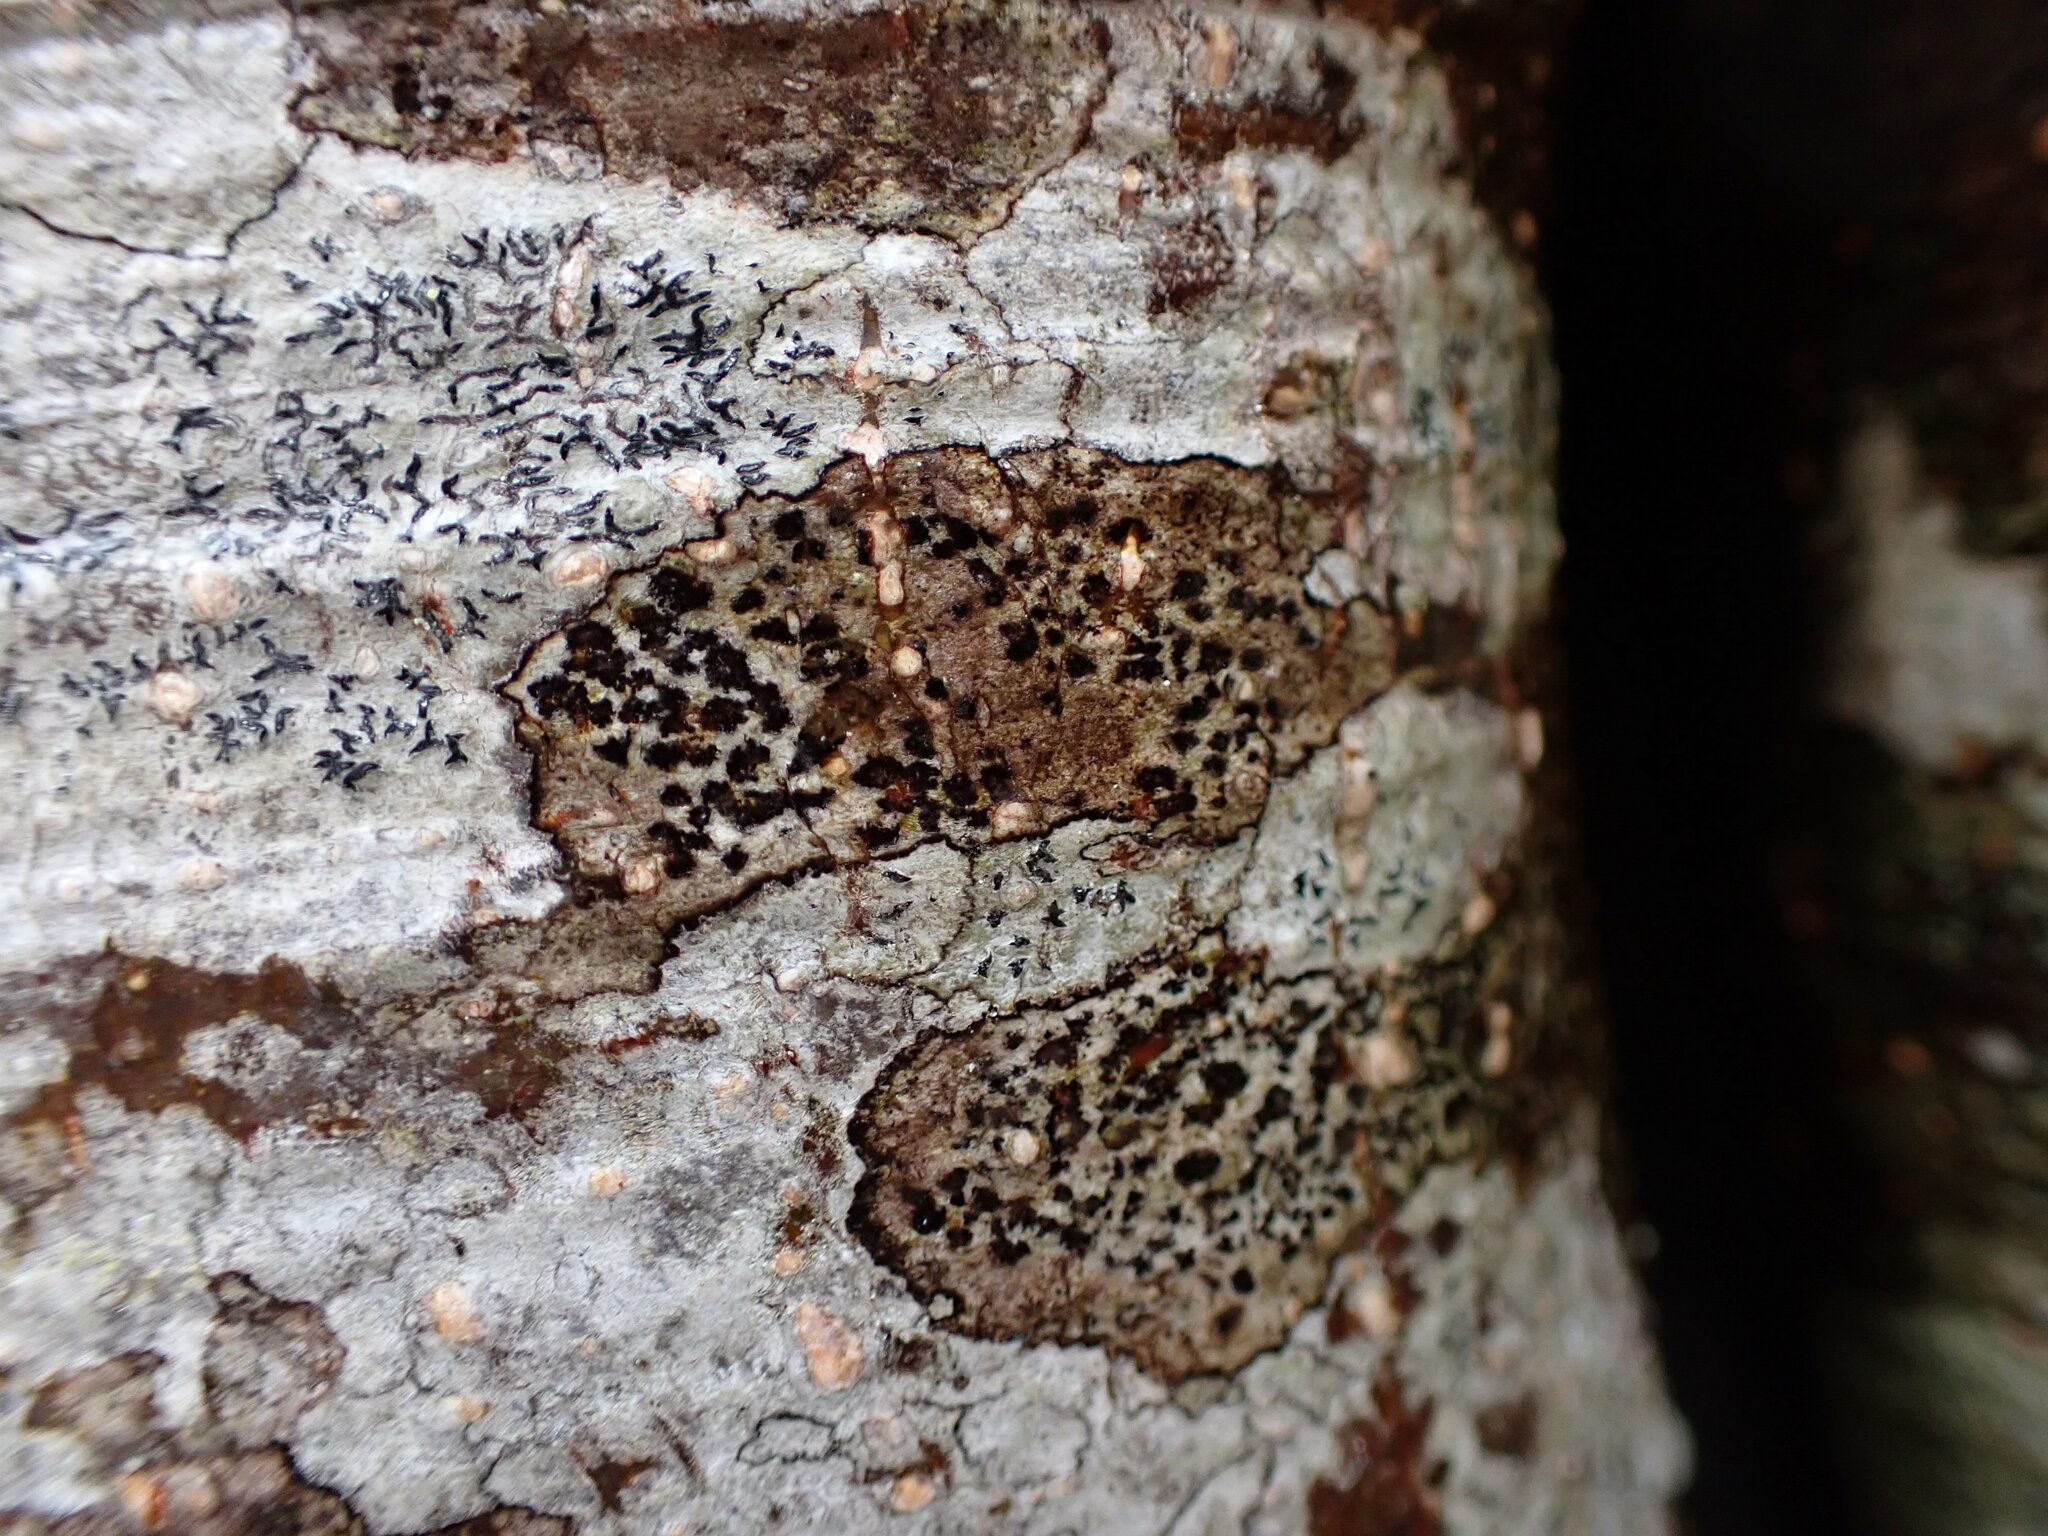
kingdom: Fungi
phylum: Ascomycota
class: Arthoniomycetes
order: Arthoniales
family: Arthoniaceae
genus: Arthonia
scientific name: Arthonia radiata
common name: Asterisk lichen
